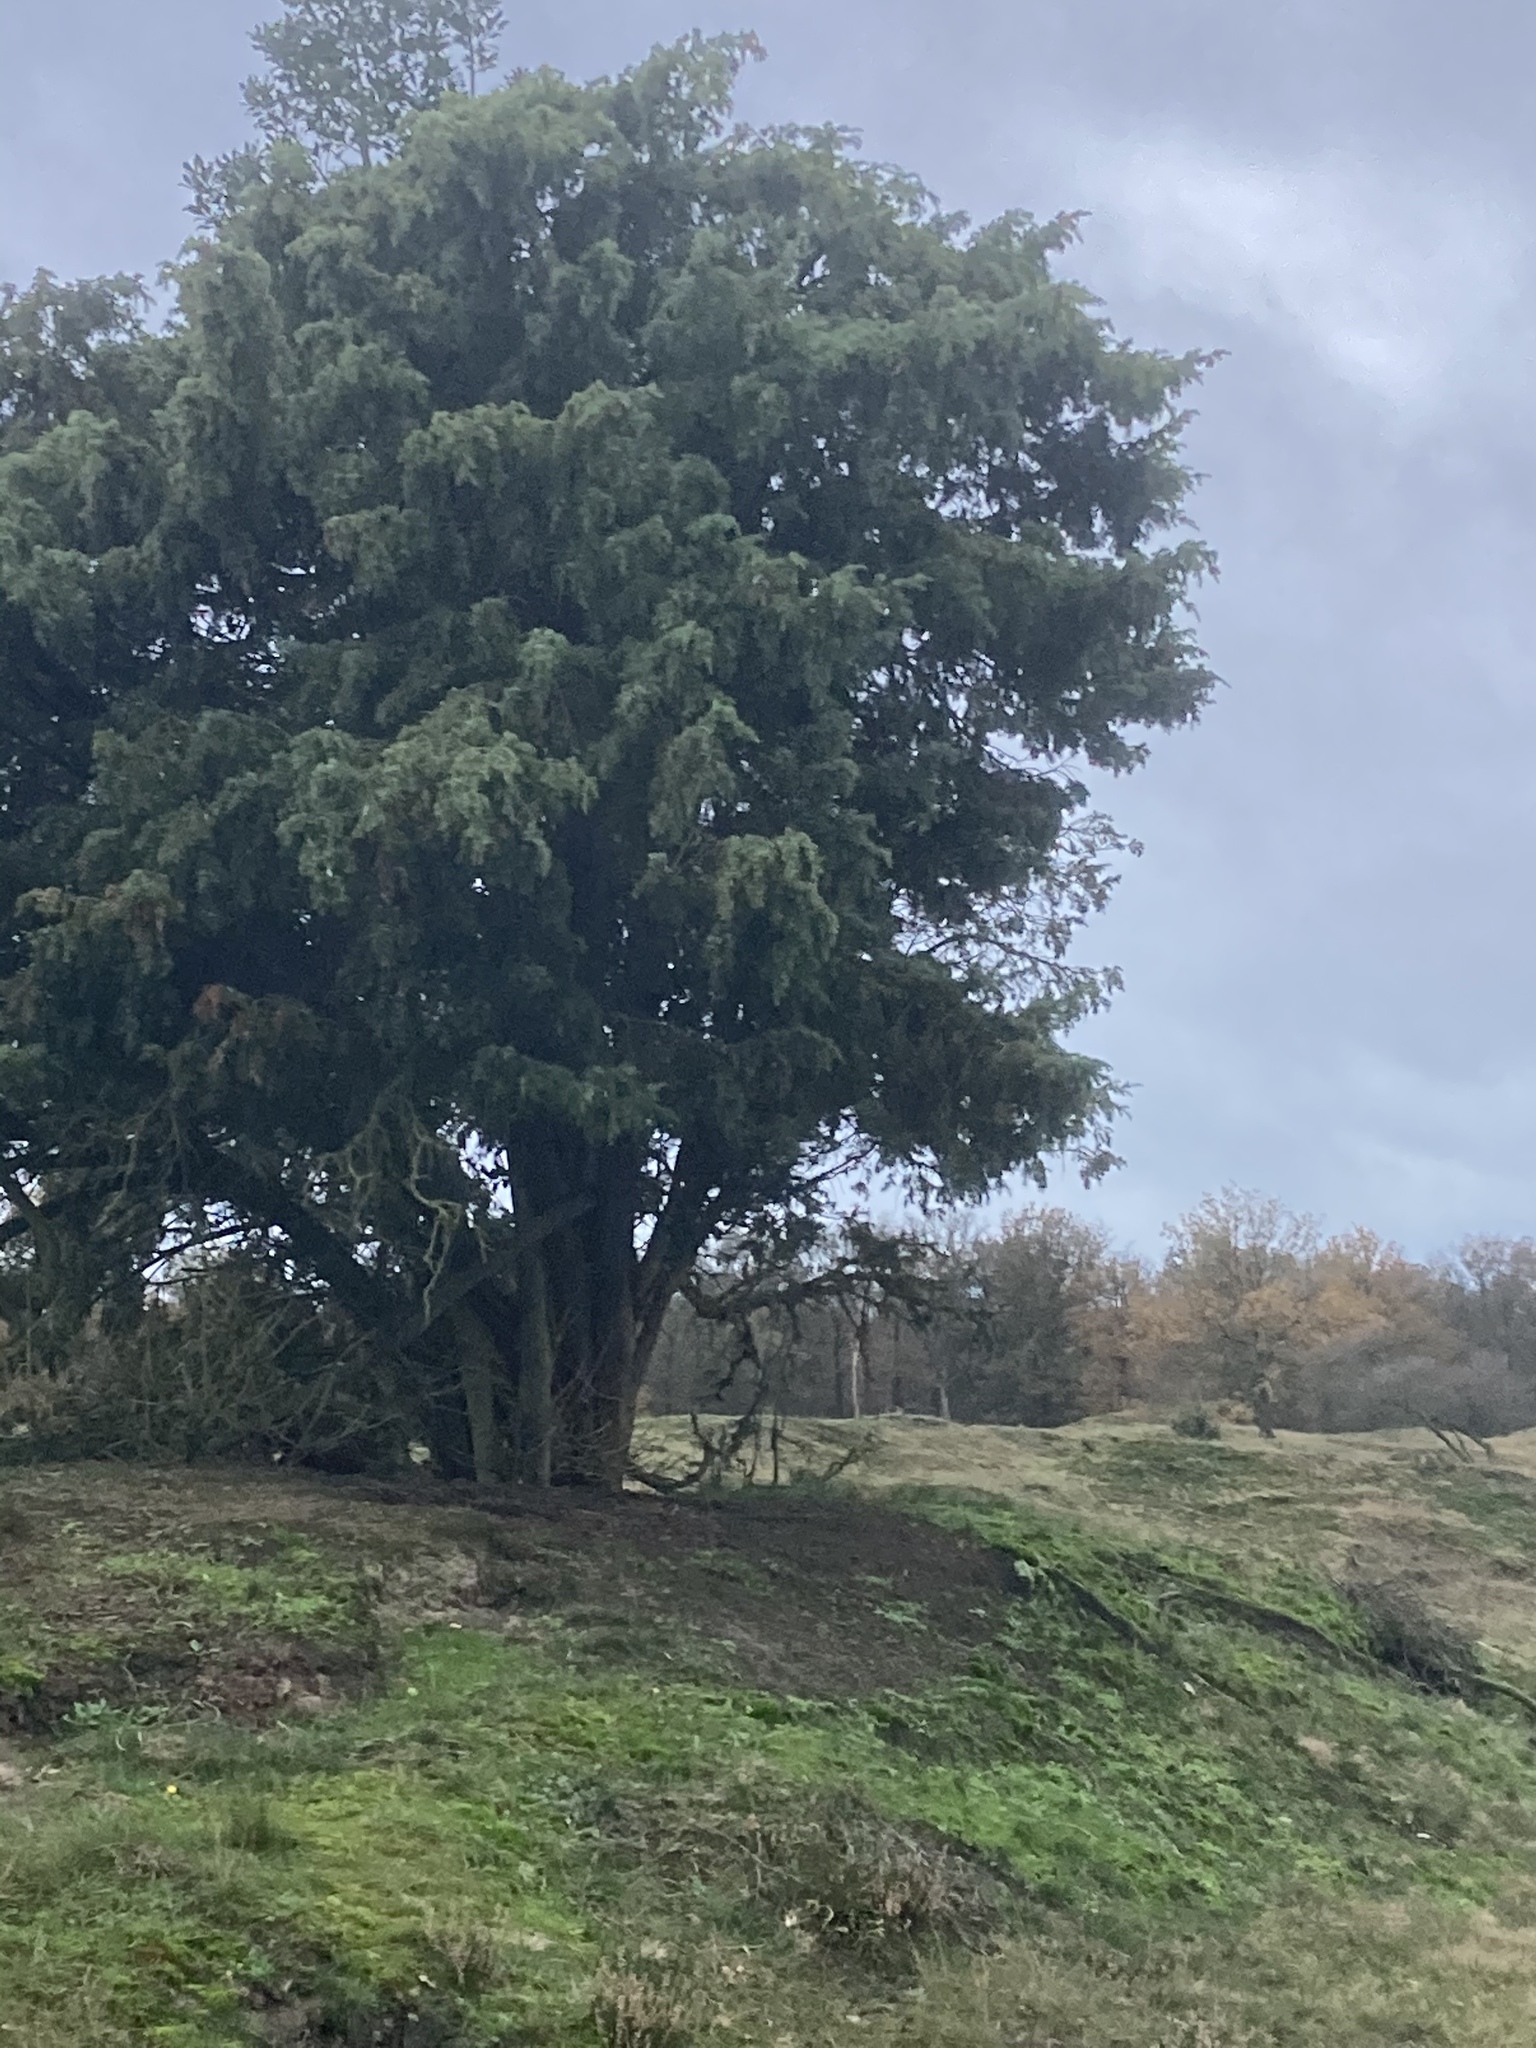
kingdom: Plantae
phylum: Tracheophyta
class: Pinopsida
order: Pinales
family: Cupressaceae
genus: Juniperus
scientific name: Juniperus communis
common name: Common juniper
